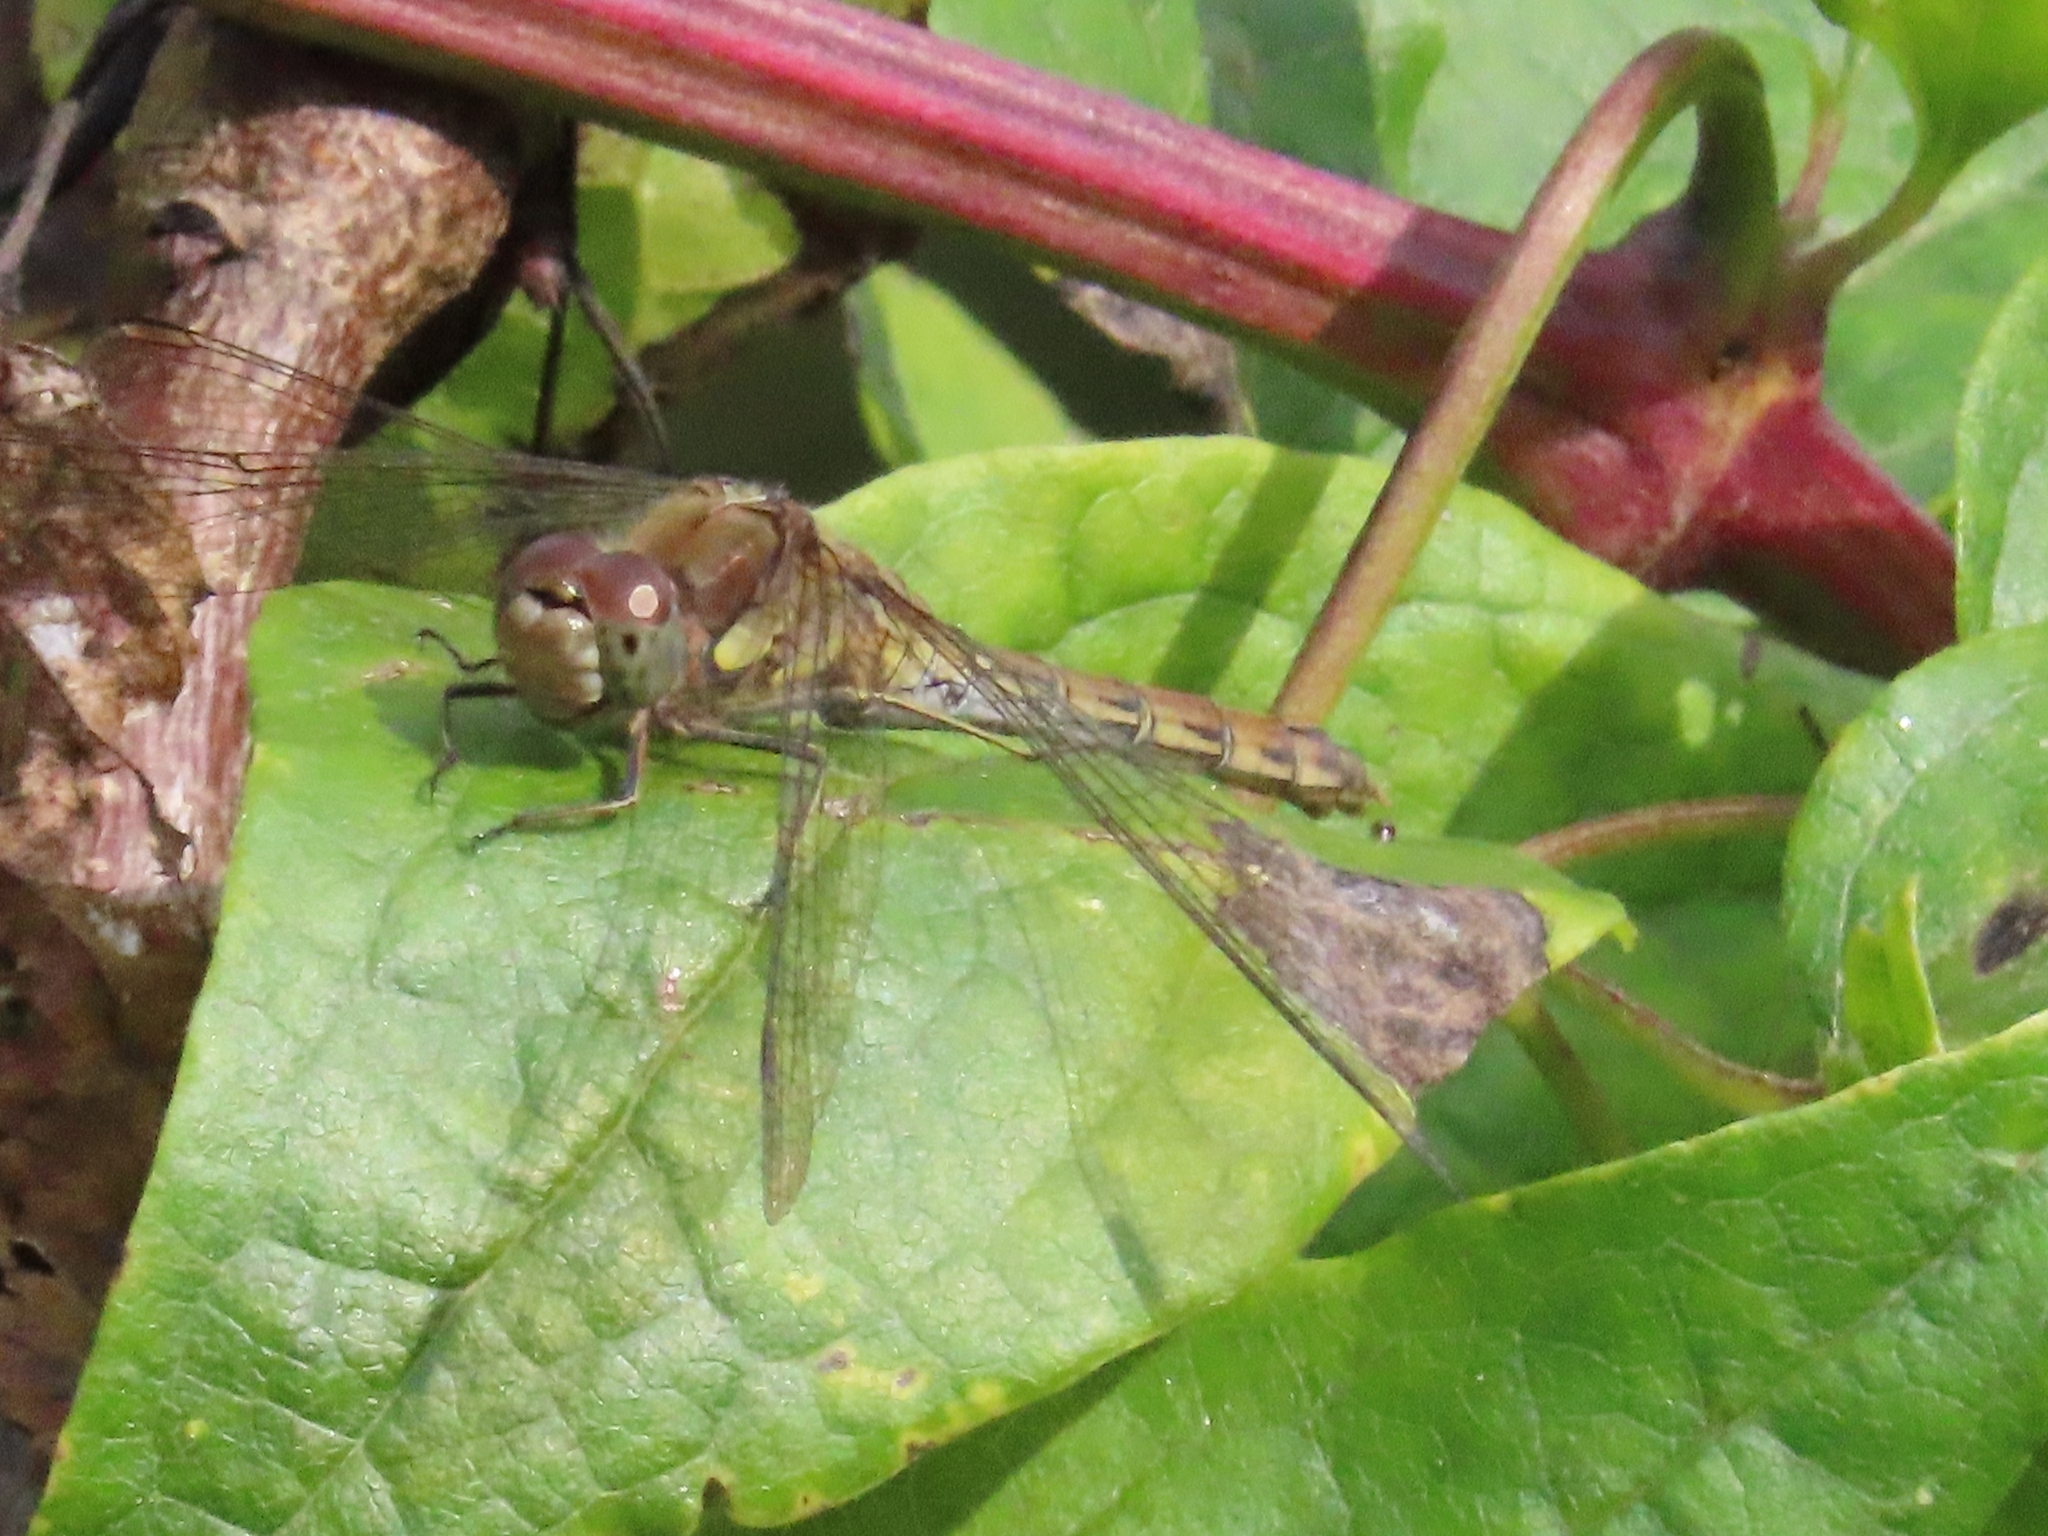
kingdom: Animalia
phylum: Arthropoda
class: Insecta
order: Odonata
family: Libellulidae
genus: Sympetrum
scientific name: Sympetrum striolatum
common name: Common darter
